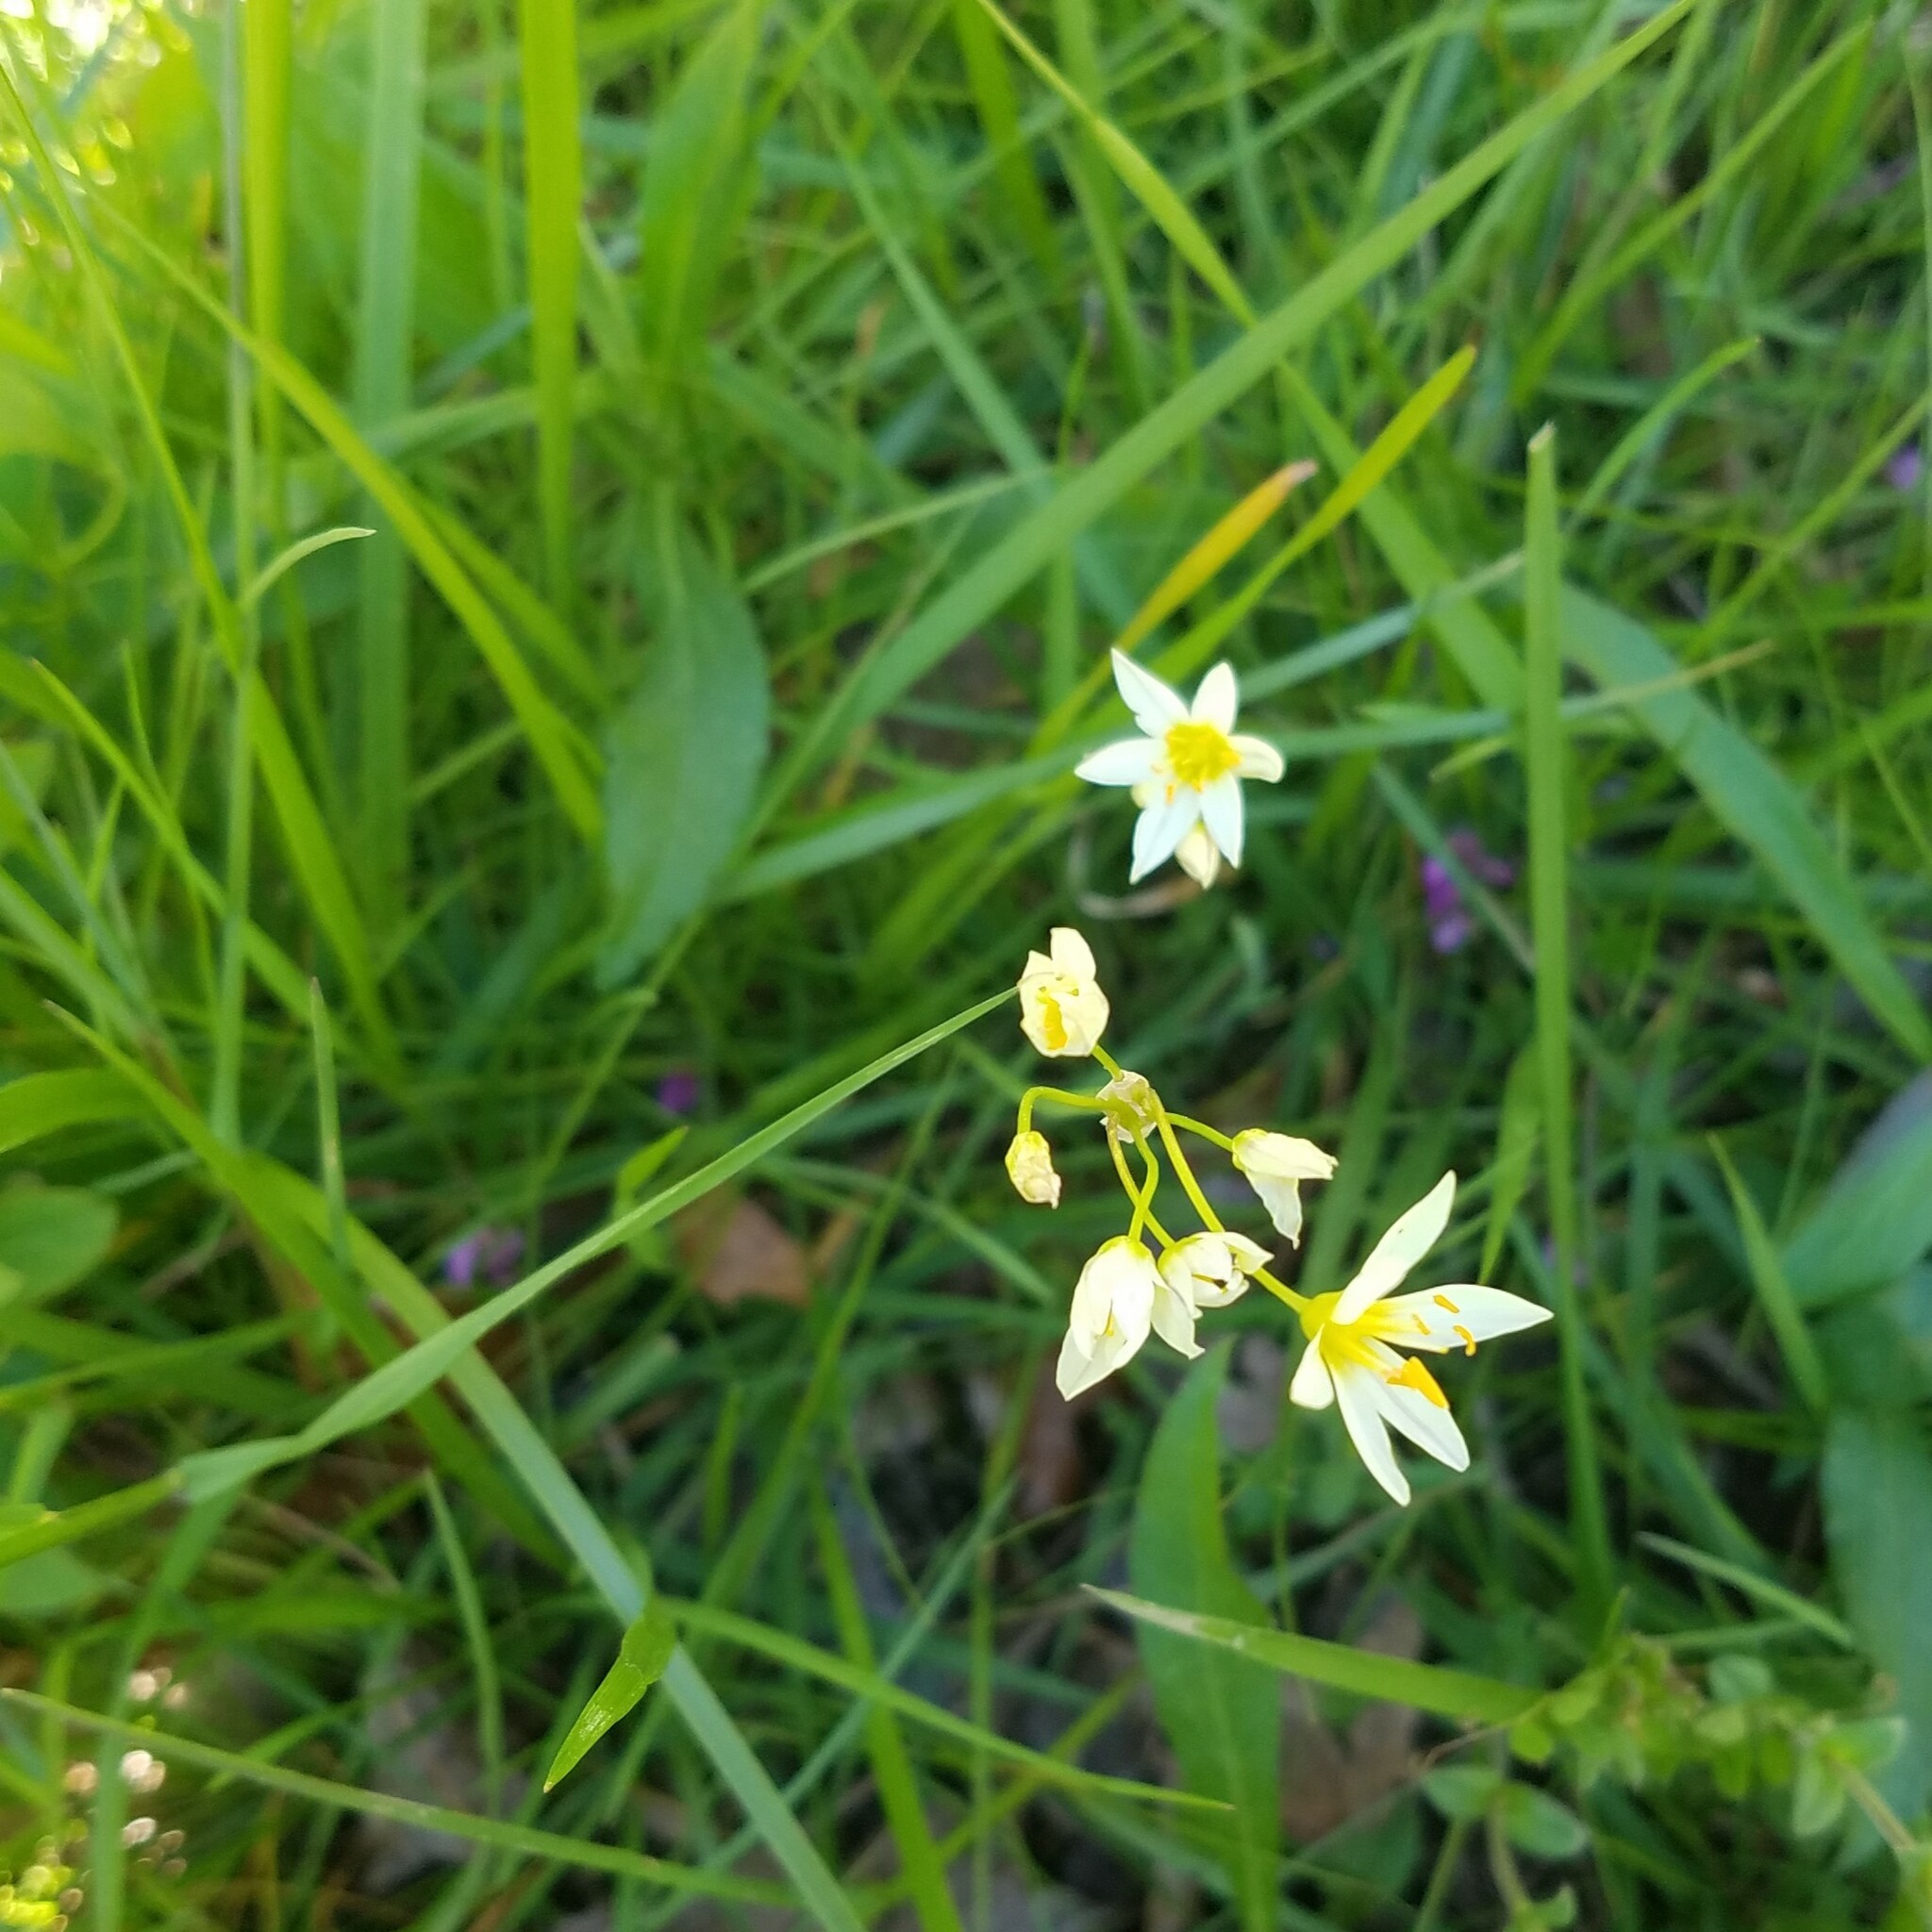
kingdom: Plantae
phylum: Tracheophyta
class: Liliopsida
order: Asparagales
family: Amaryllidaceae
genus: Nothoscordum
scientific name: Nothoscordum bivalve
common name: Crow-poison
